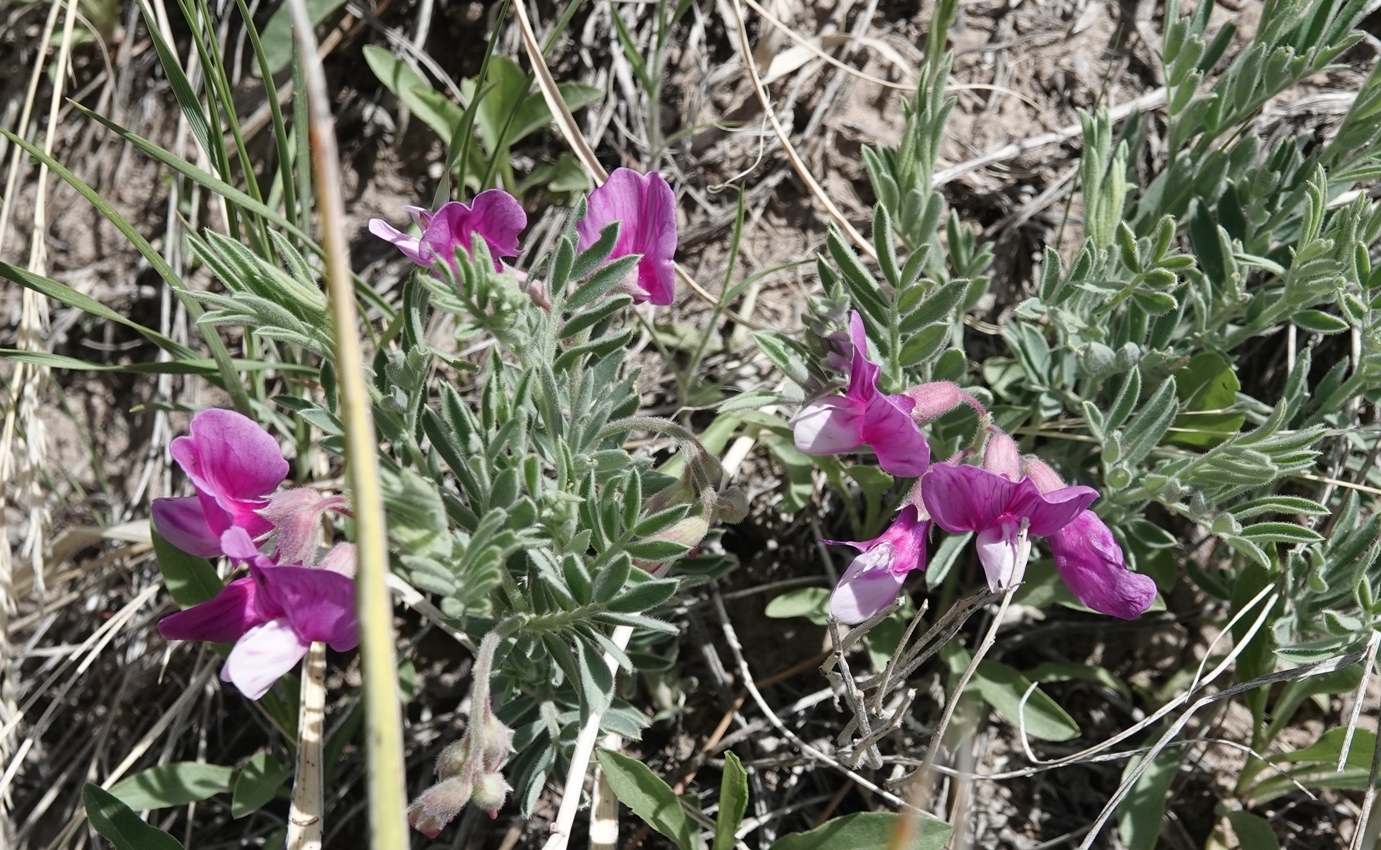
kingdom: Plantae
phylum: Tracheophyta
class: Magnoliopsida
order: Fabales
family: Fabaceae
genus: Lathyrus
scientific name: Lathyrus
